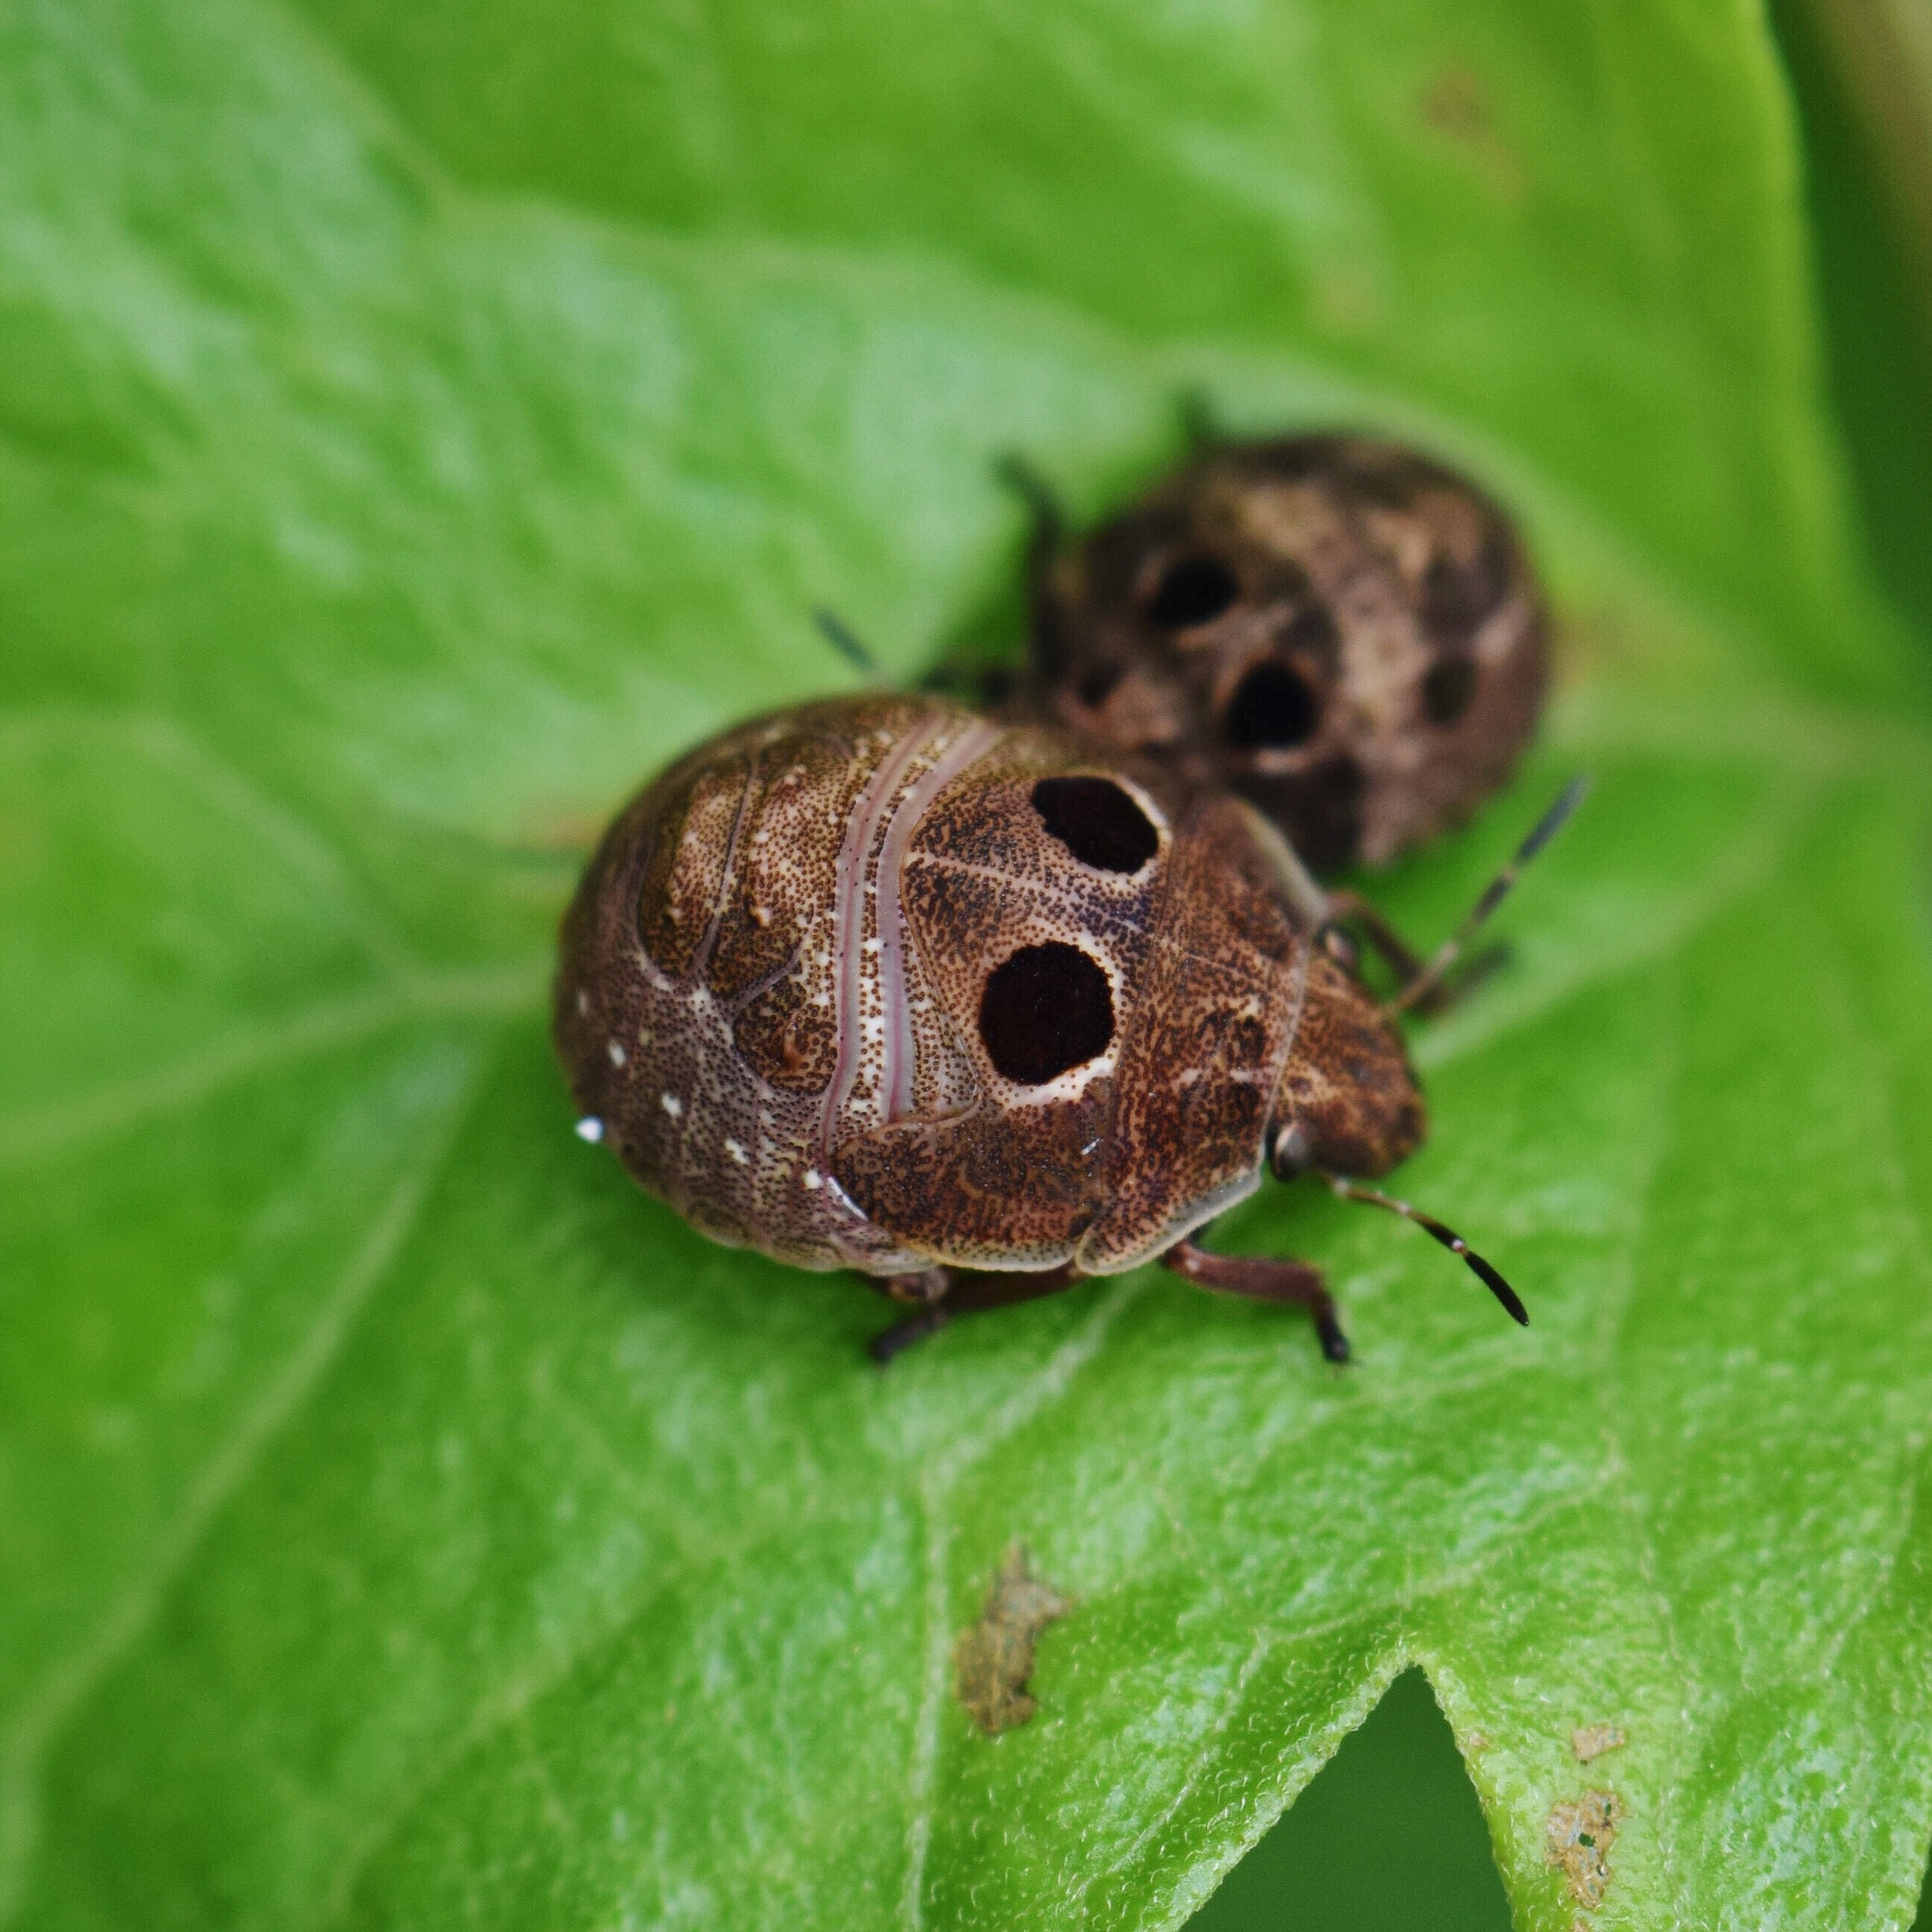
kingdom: Animalia
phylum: Arthropoda
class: Insecta
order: Hemiptera
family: Scutelleridae
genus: Hotea
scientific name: Hotea subfasciata
